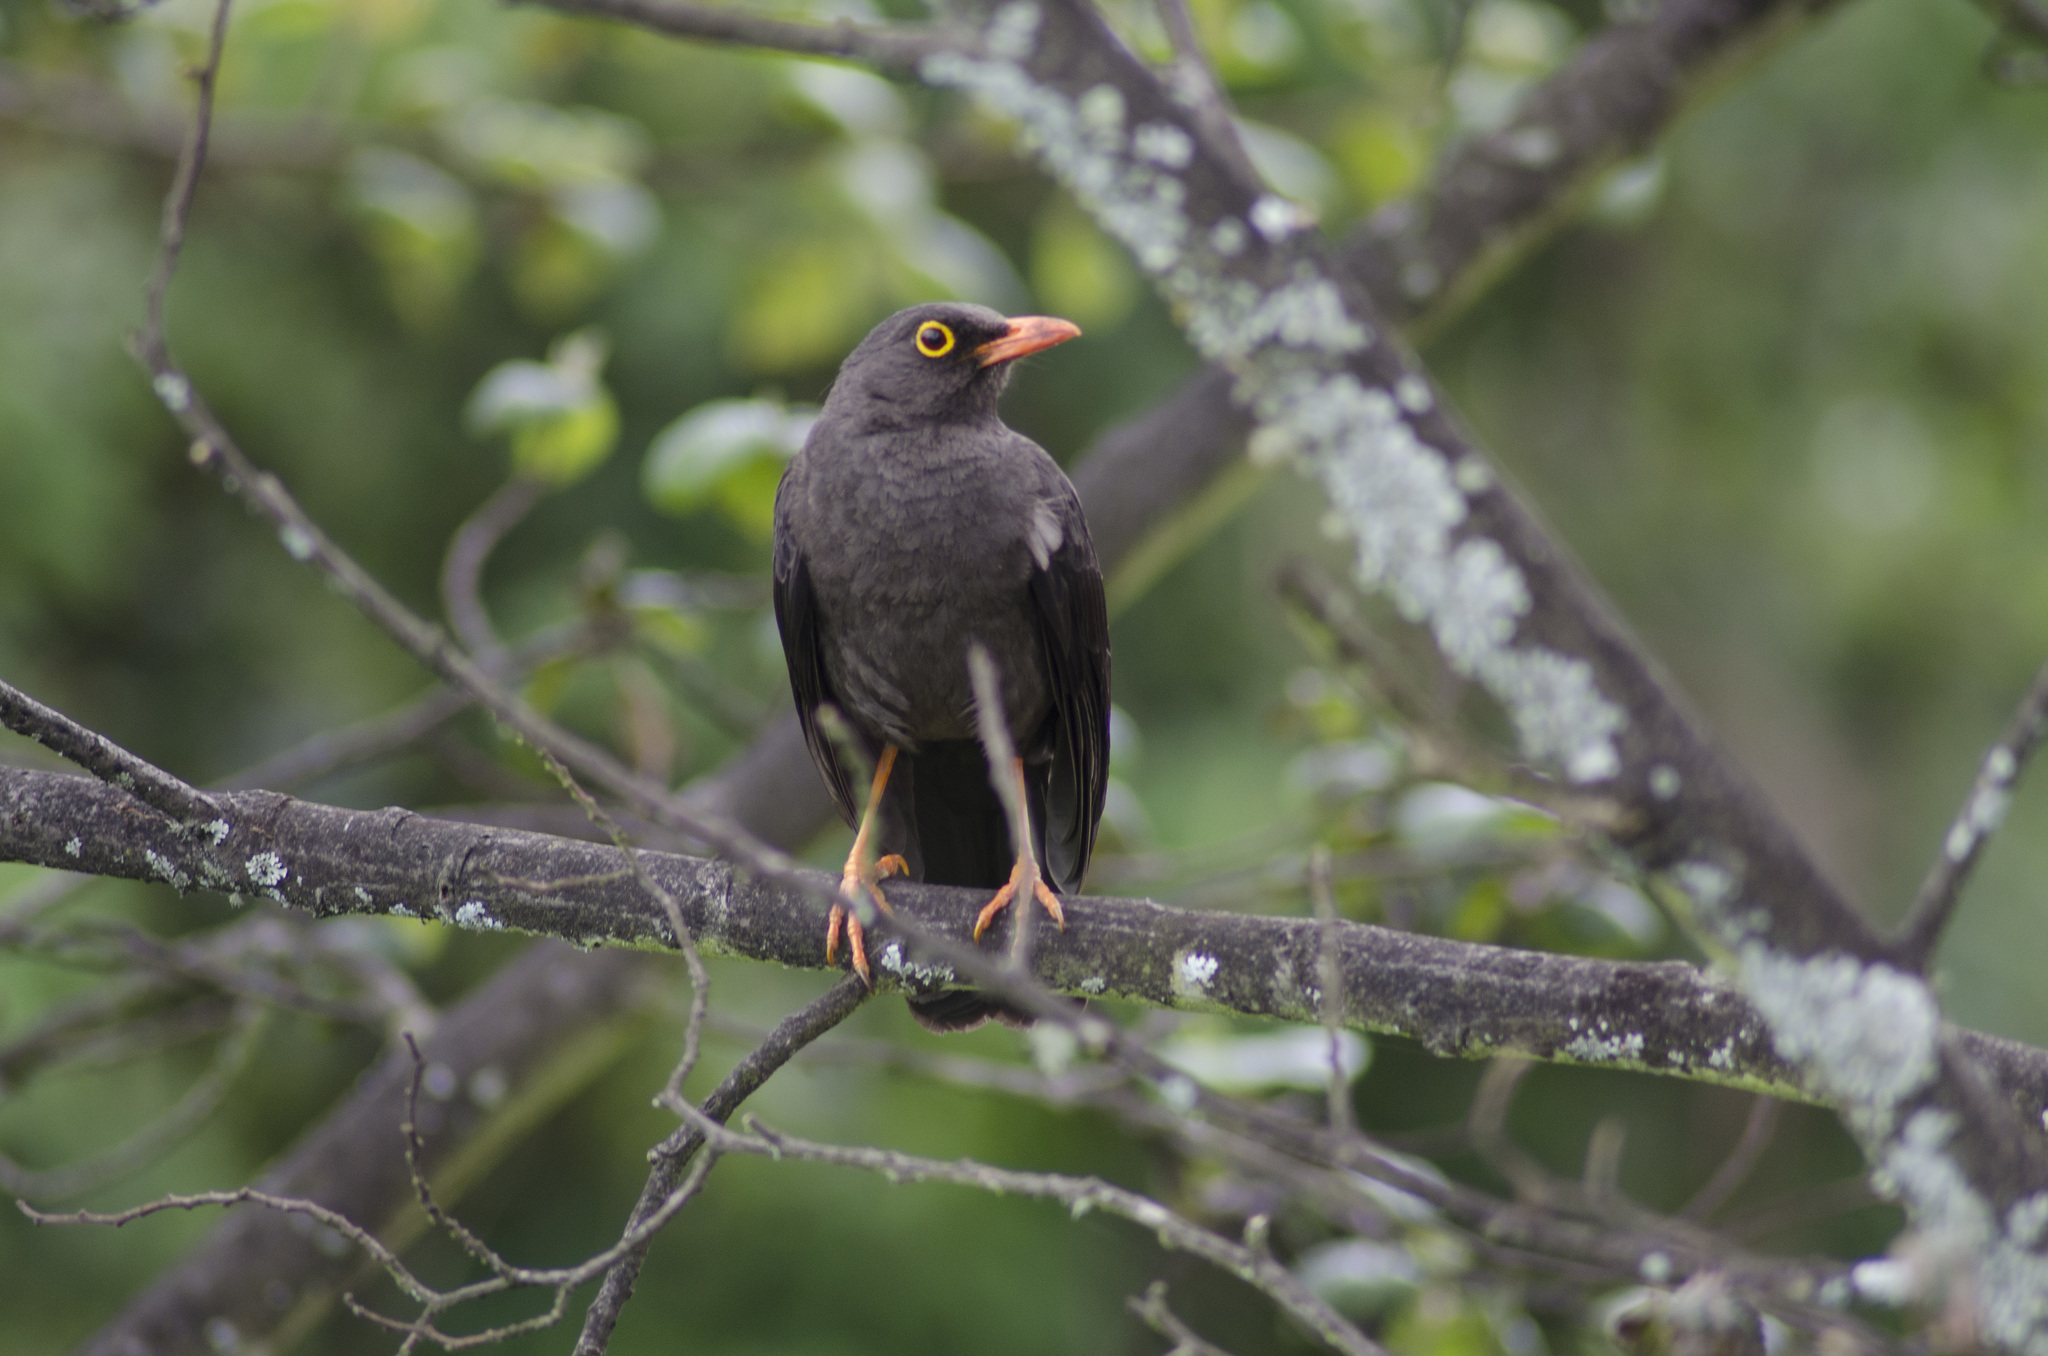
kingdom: Animalia
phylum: Chordata
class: Aves
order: Passeriformes
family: Turdidae
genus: Turdus
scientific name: Turdus fuscater
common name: Great thrush
